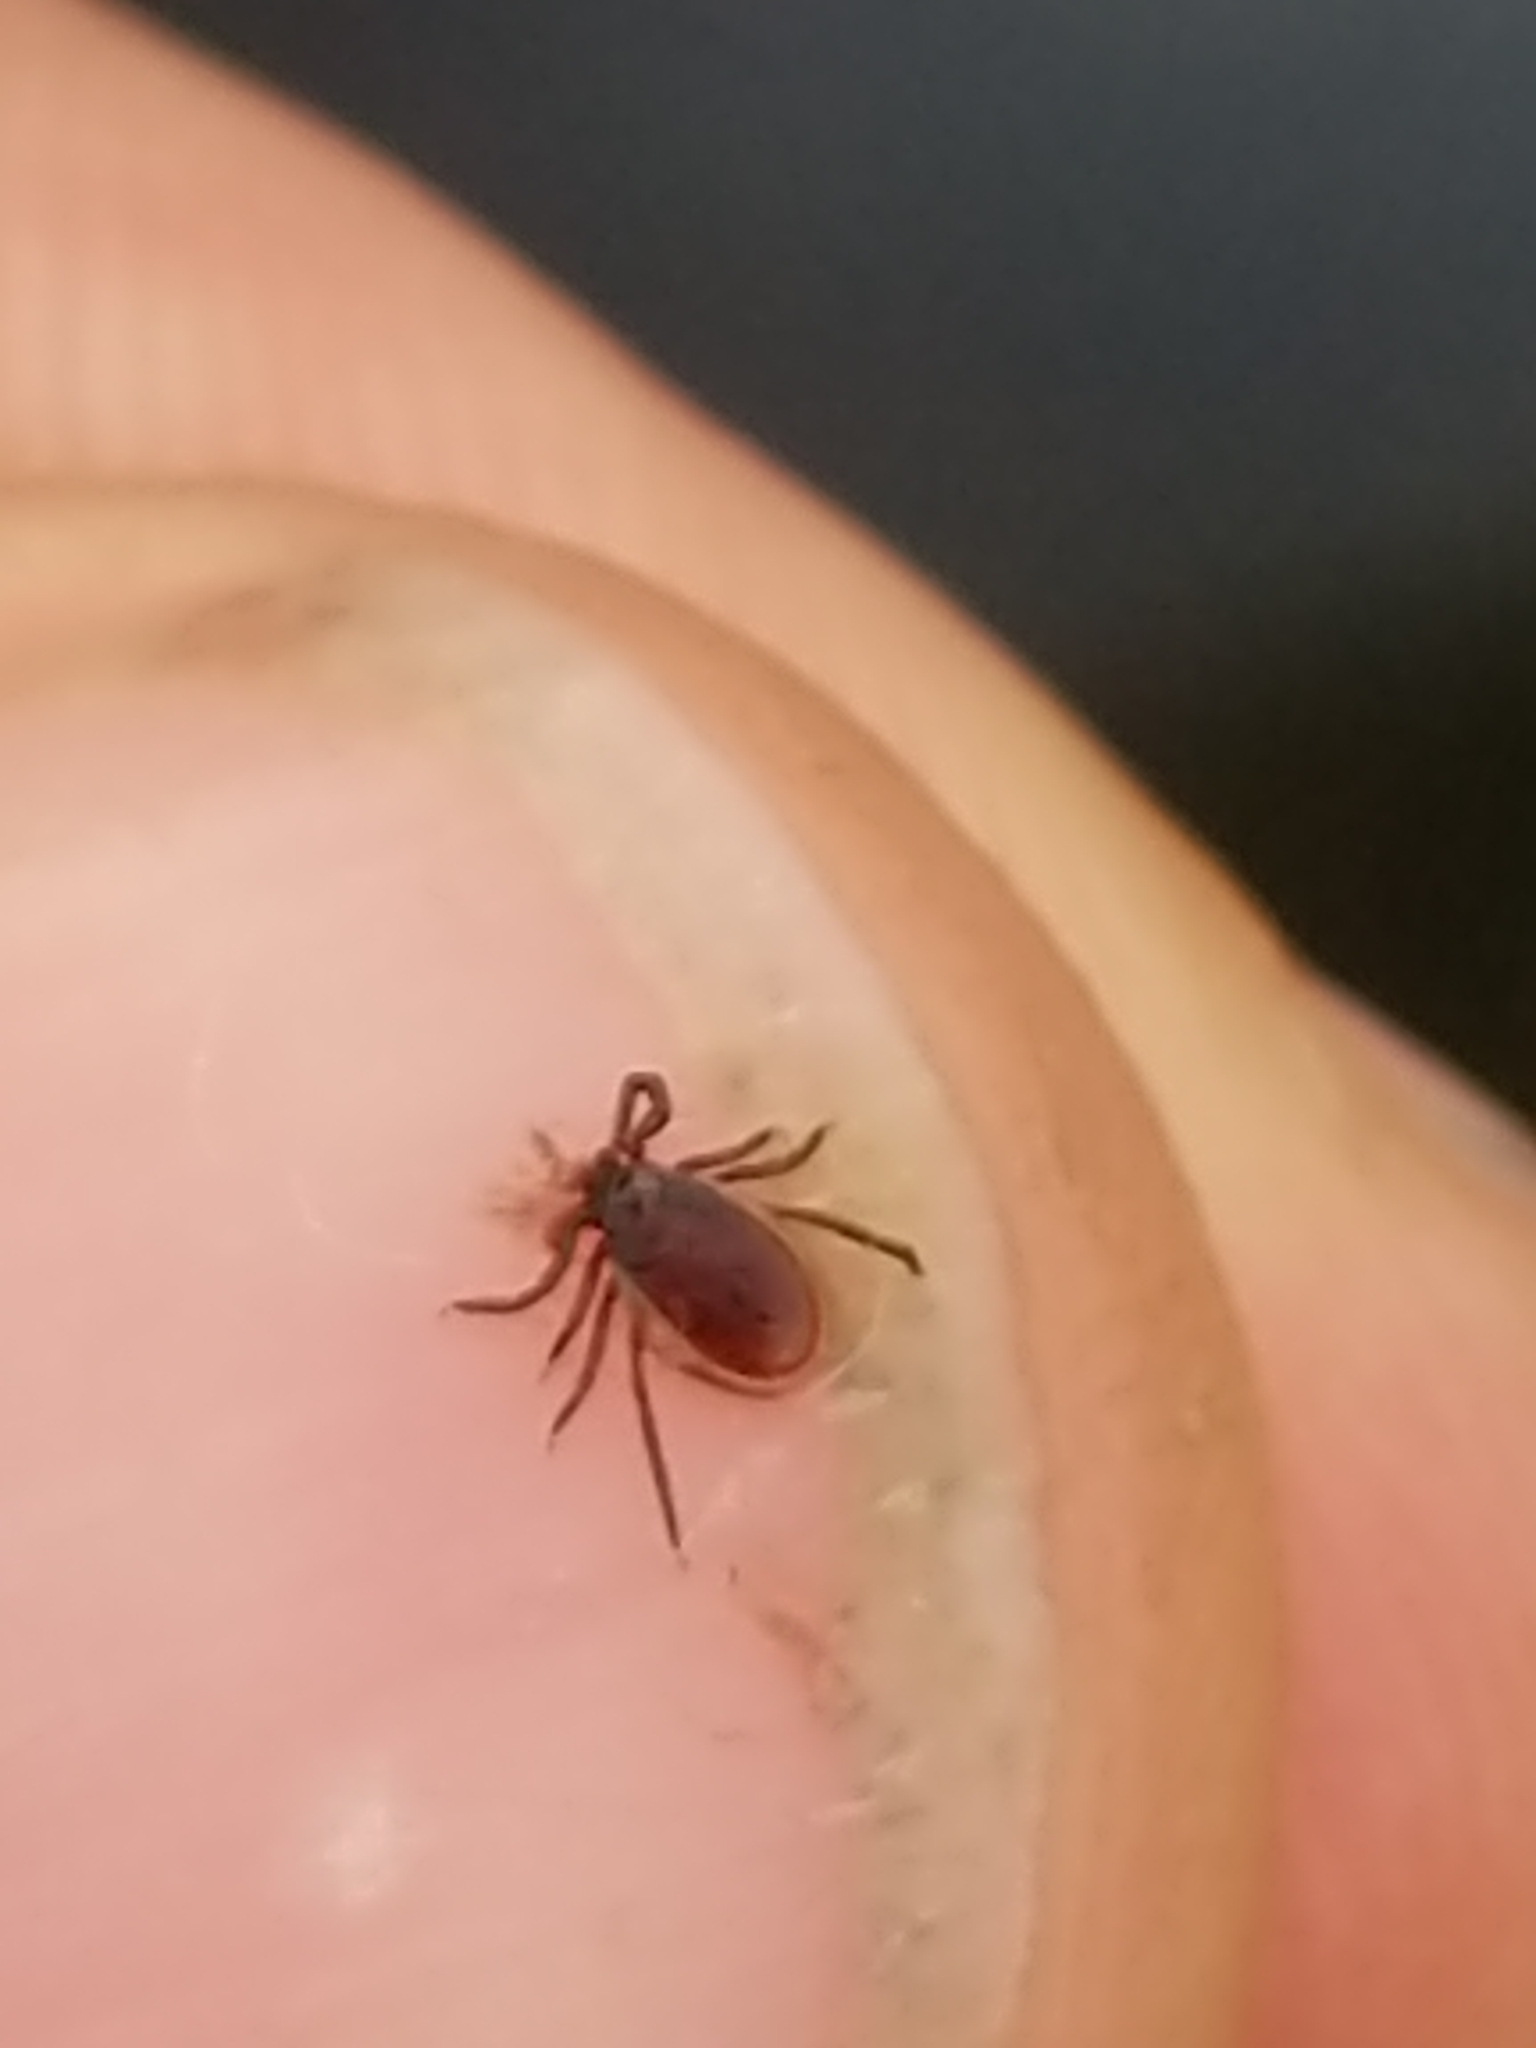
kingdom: Animalia
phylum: Arthropoda
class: Arachnida
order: Ixodida
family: Ixodidae
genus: Ixodes
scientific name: Ixodes scapularis
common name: Black legged tick
